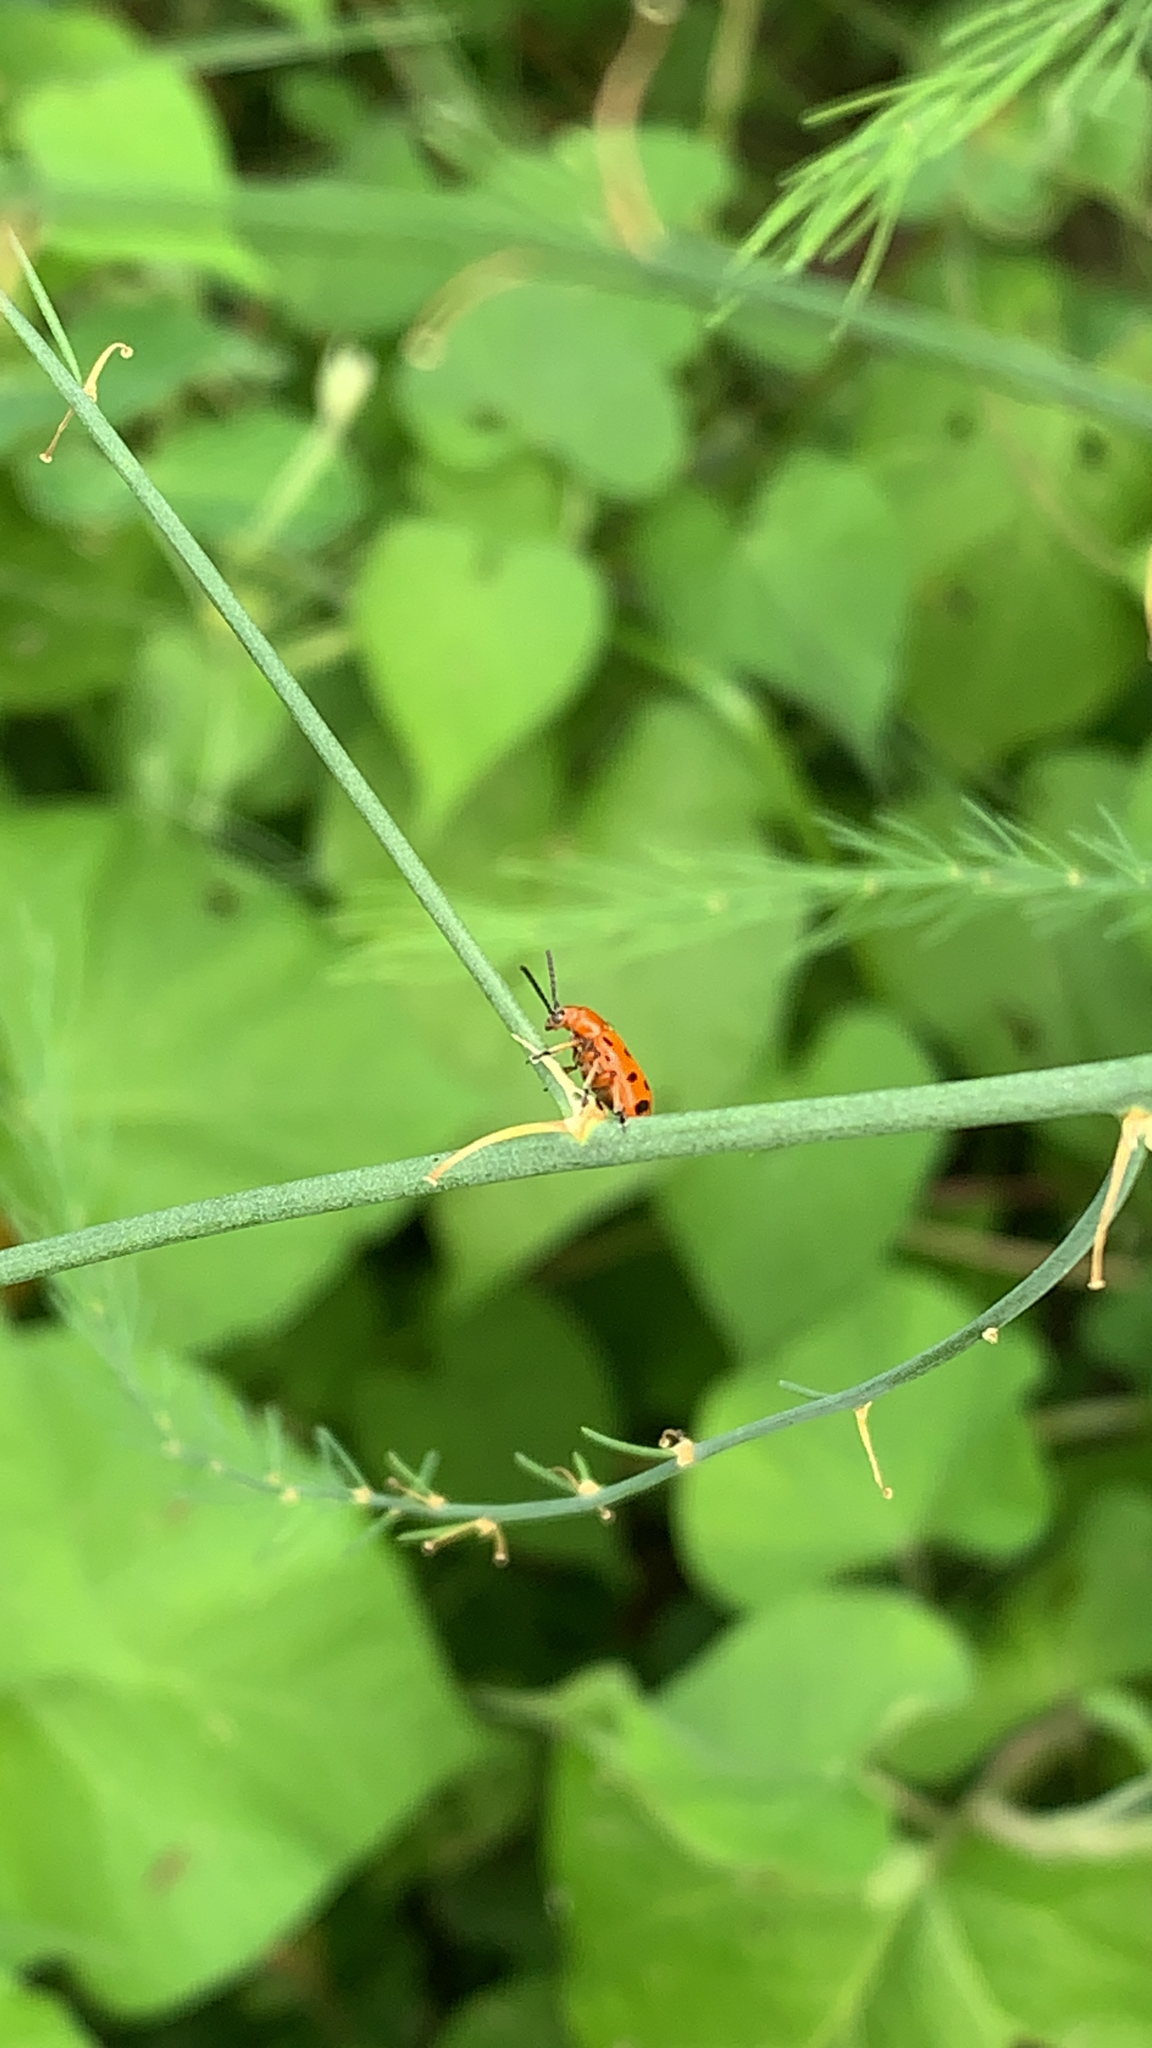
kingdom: Animalia
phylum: Arthropoda
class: Insecta
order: Coleoptera
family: Chrysomelidae
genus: Crioceris
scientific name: Crioceris duodecimpunctata
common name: Twelve-spotted asparagus beetle
